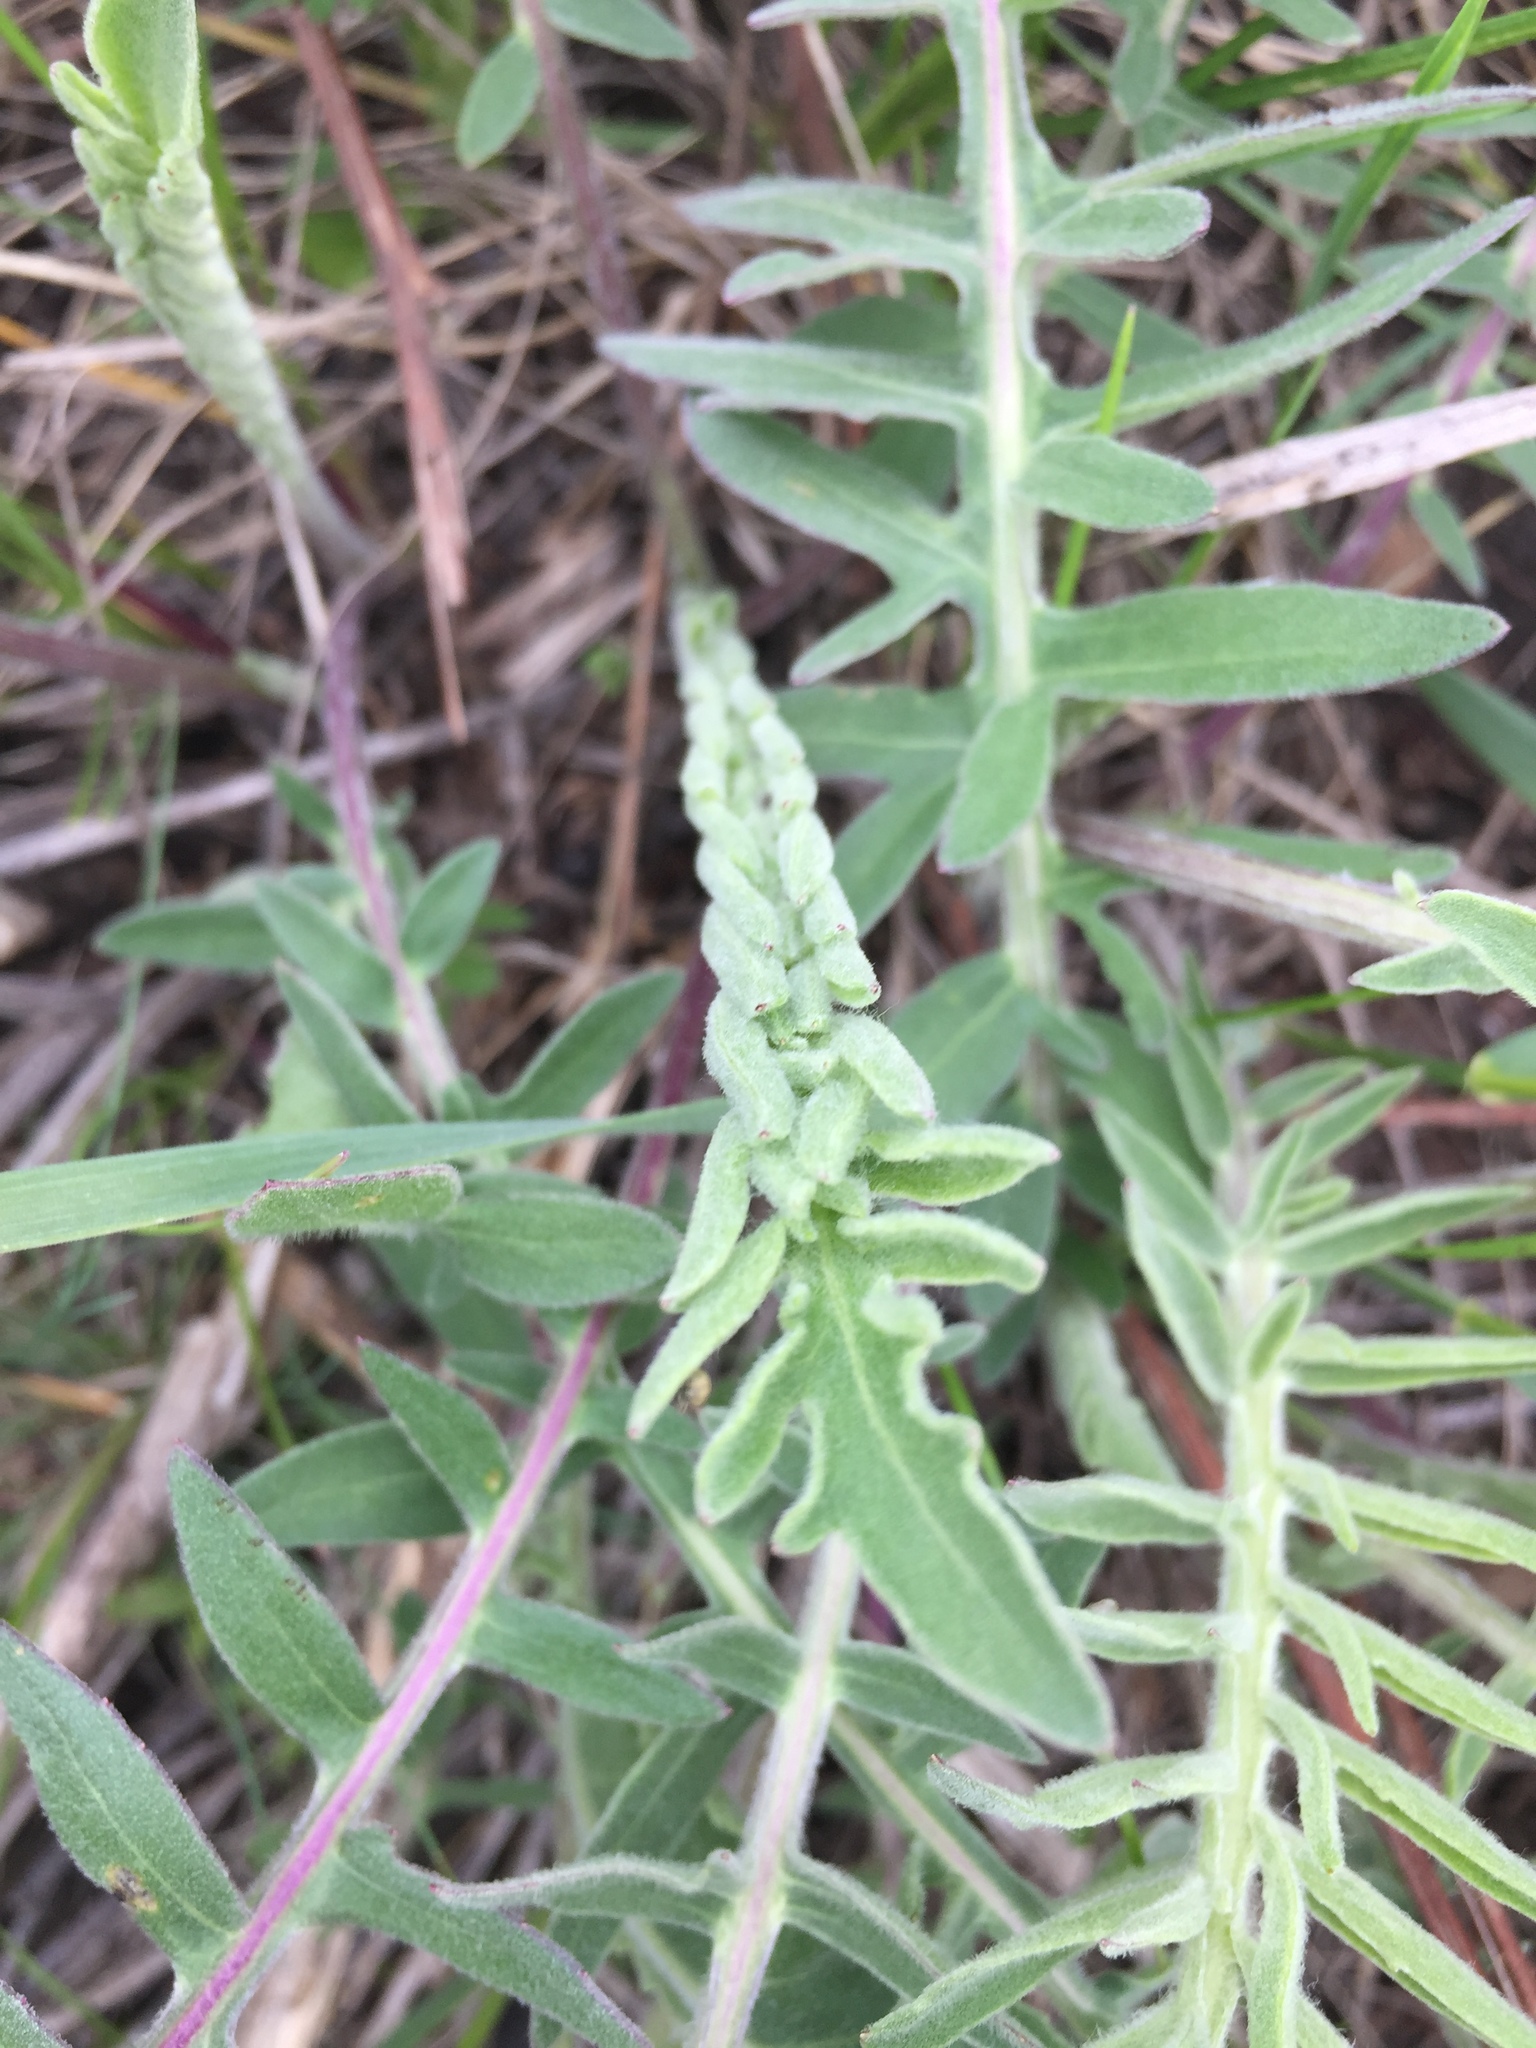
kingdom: Plantae
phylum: Tracheophyta
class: Magnoliopsida
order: Asterales
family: Asteraceae
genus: Centaurea
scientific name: Centaurea scabiosa
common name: Greater knapweed
